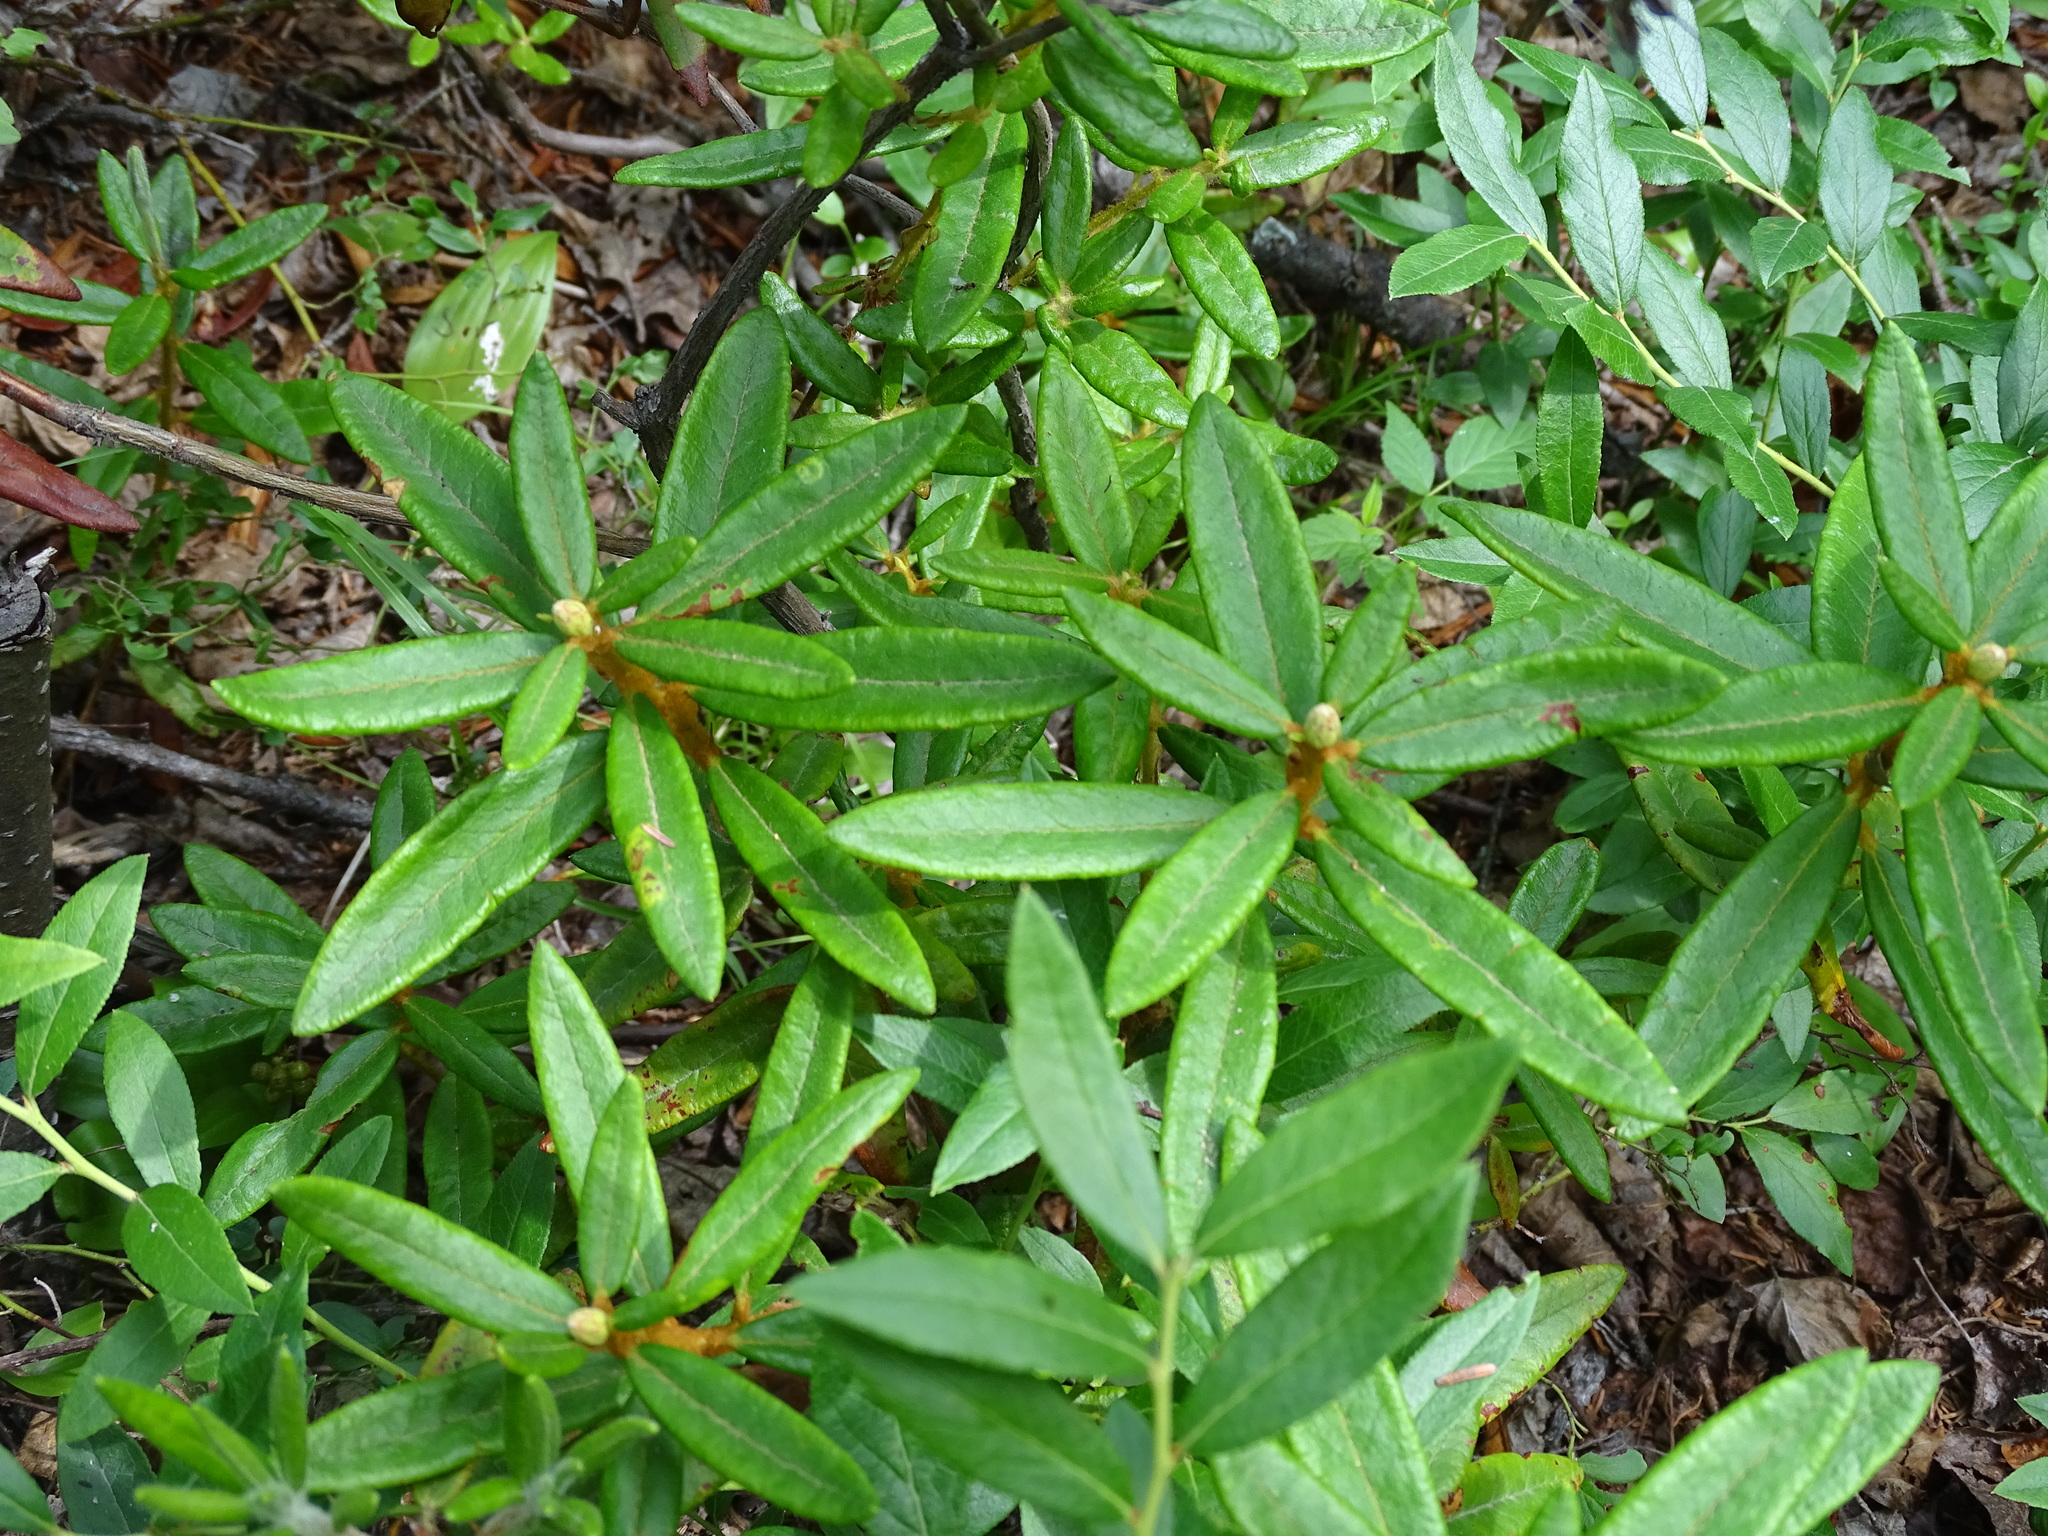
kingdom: Plantae
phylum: Tracheophyta
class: Magnoliopsida
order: Ericales
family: Ericaceae
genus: Rhododendron
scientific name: Rhododendron groenlandicum
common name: Bog labrador tea
